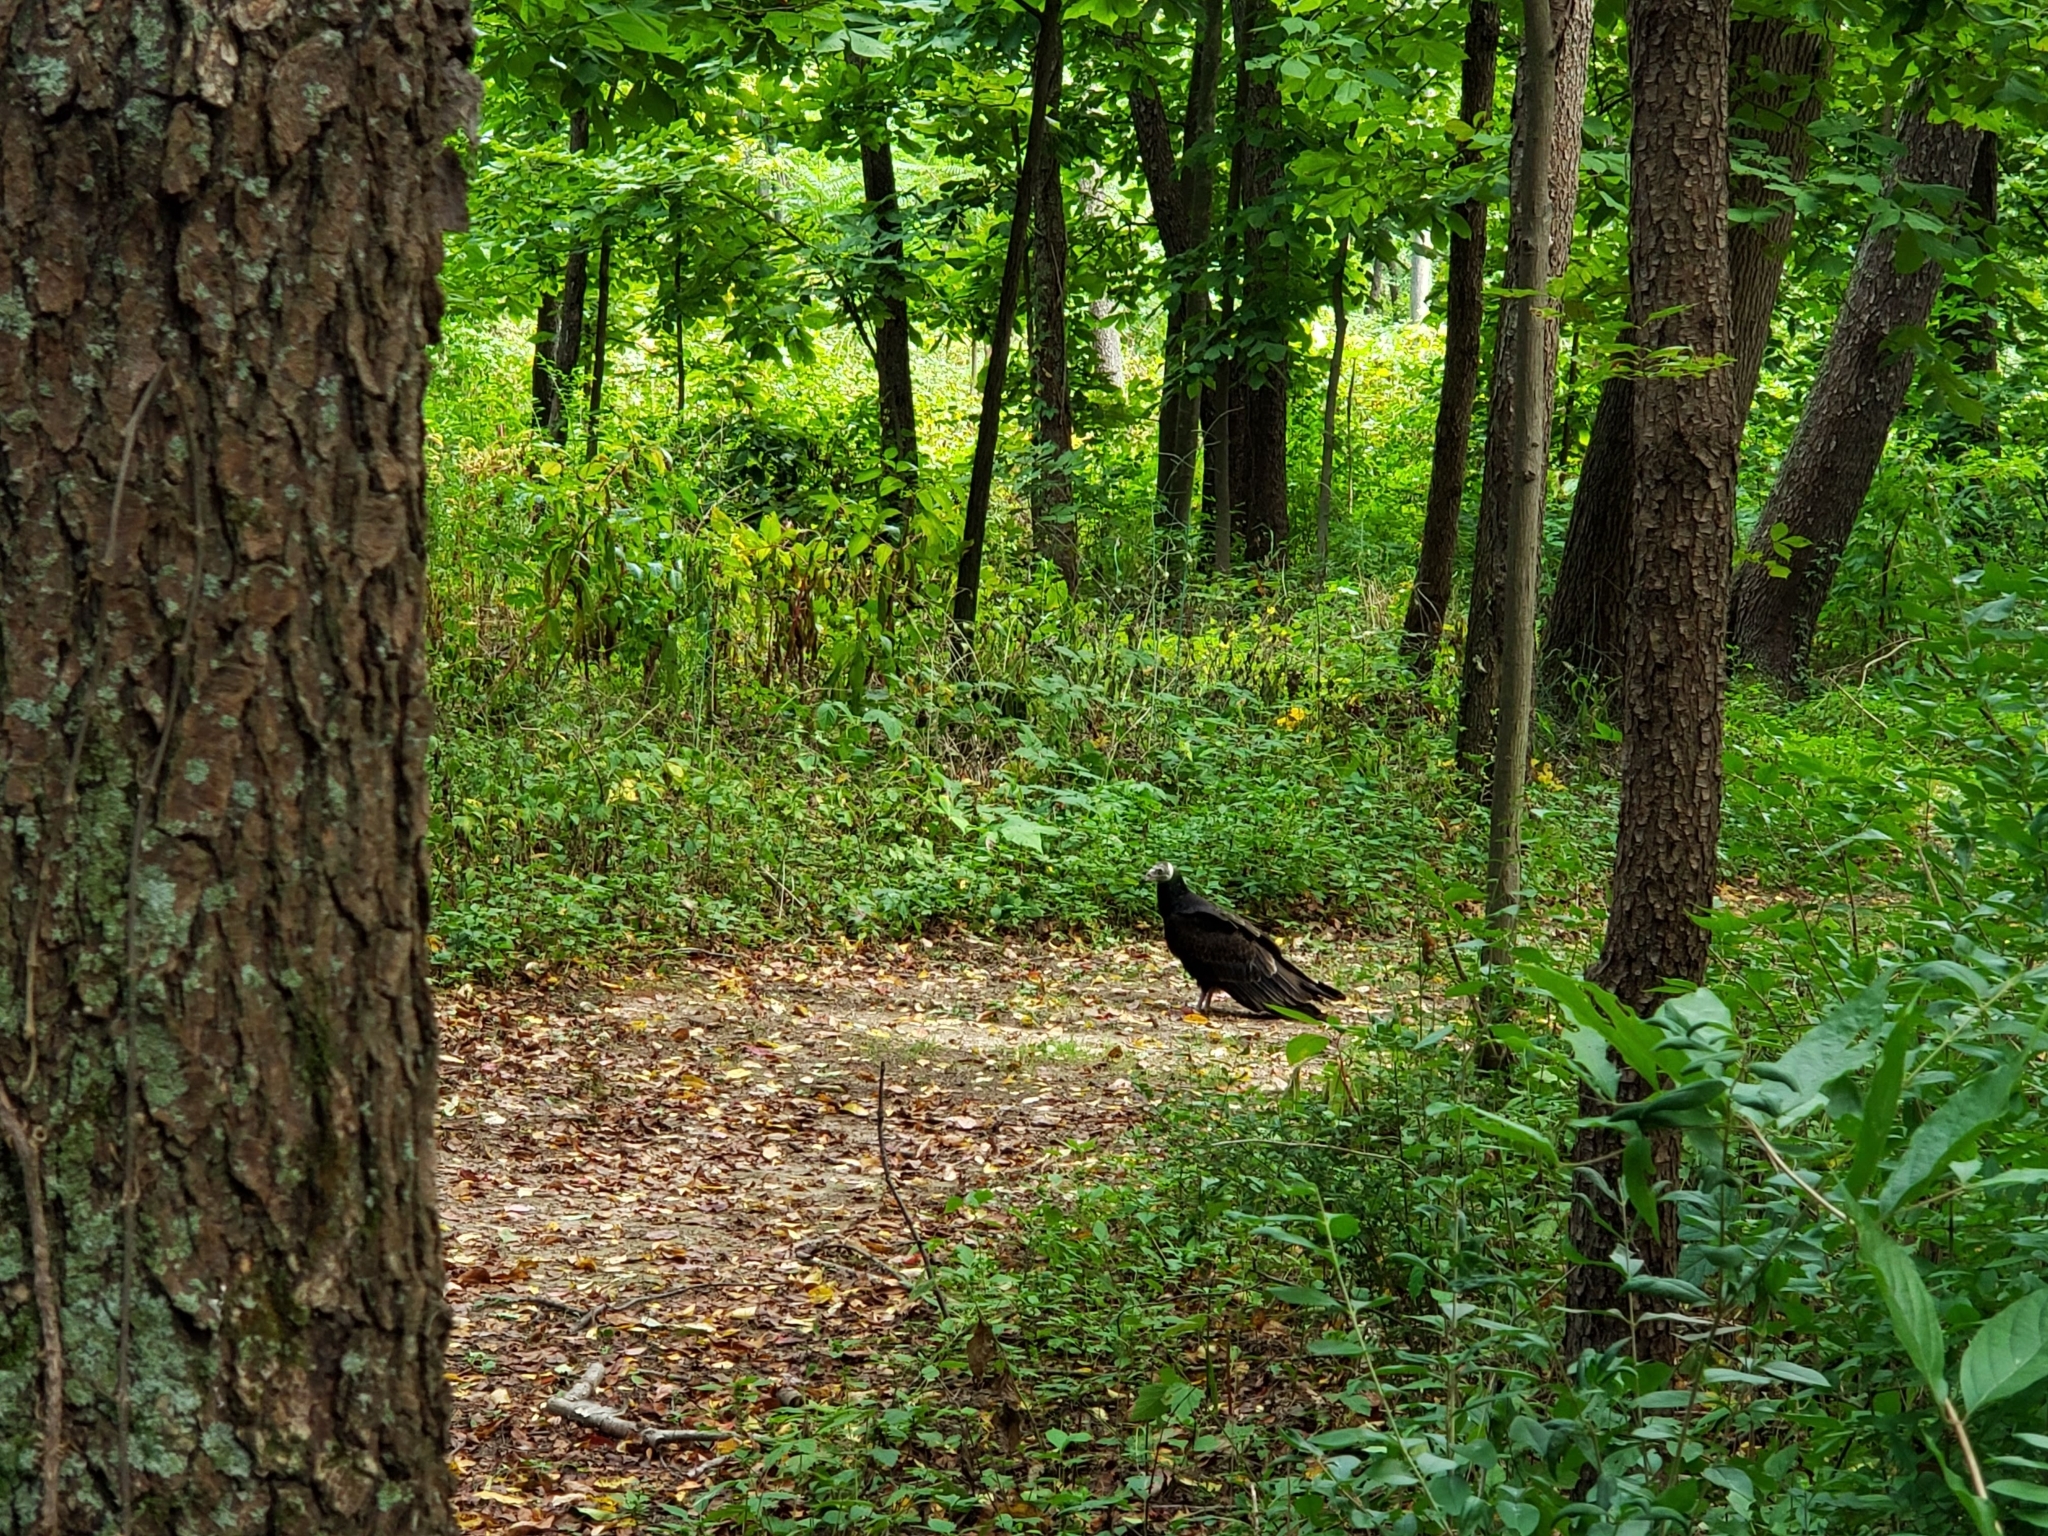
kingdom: Animalia
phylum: Chordata
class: Aves
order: Accipitriformes
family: Cathartidae
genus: Cathartes
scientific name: Cathartes aura
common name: Turkey vulture
